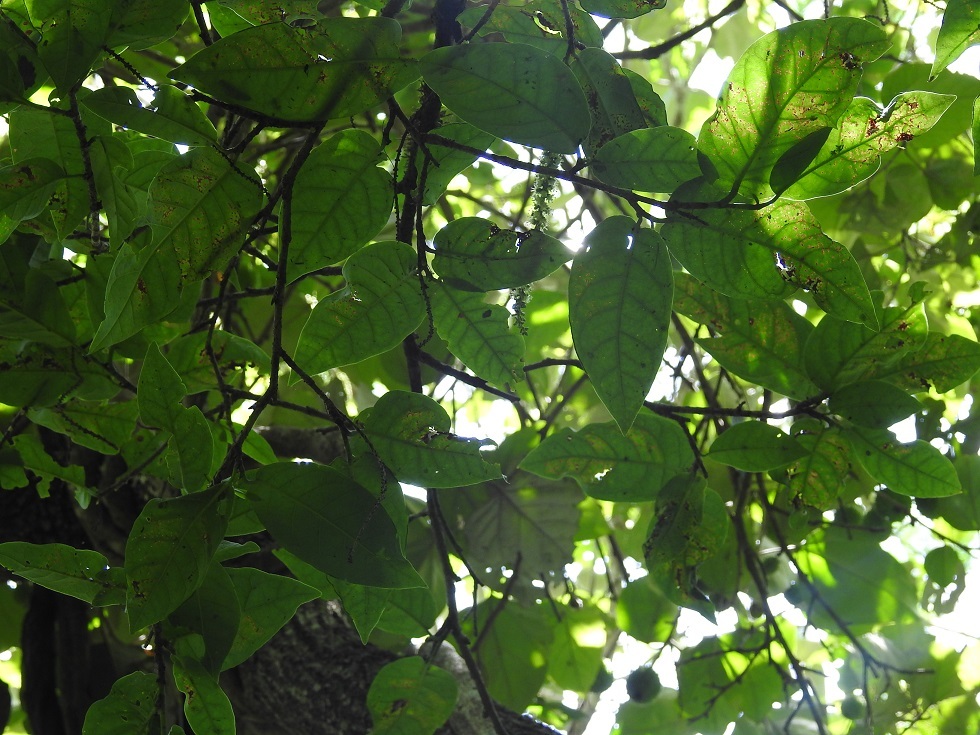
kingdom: Plantae
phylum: Tracheophyta
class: Magnoliopsida
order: Caryophyllales
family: Polygonaceae
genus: Coccoloba
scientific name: Coccoloba montana
